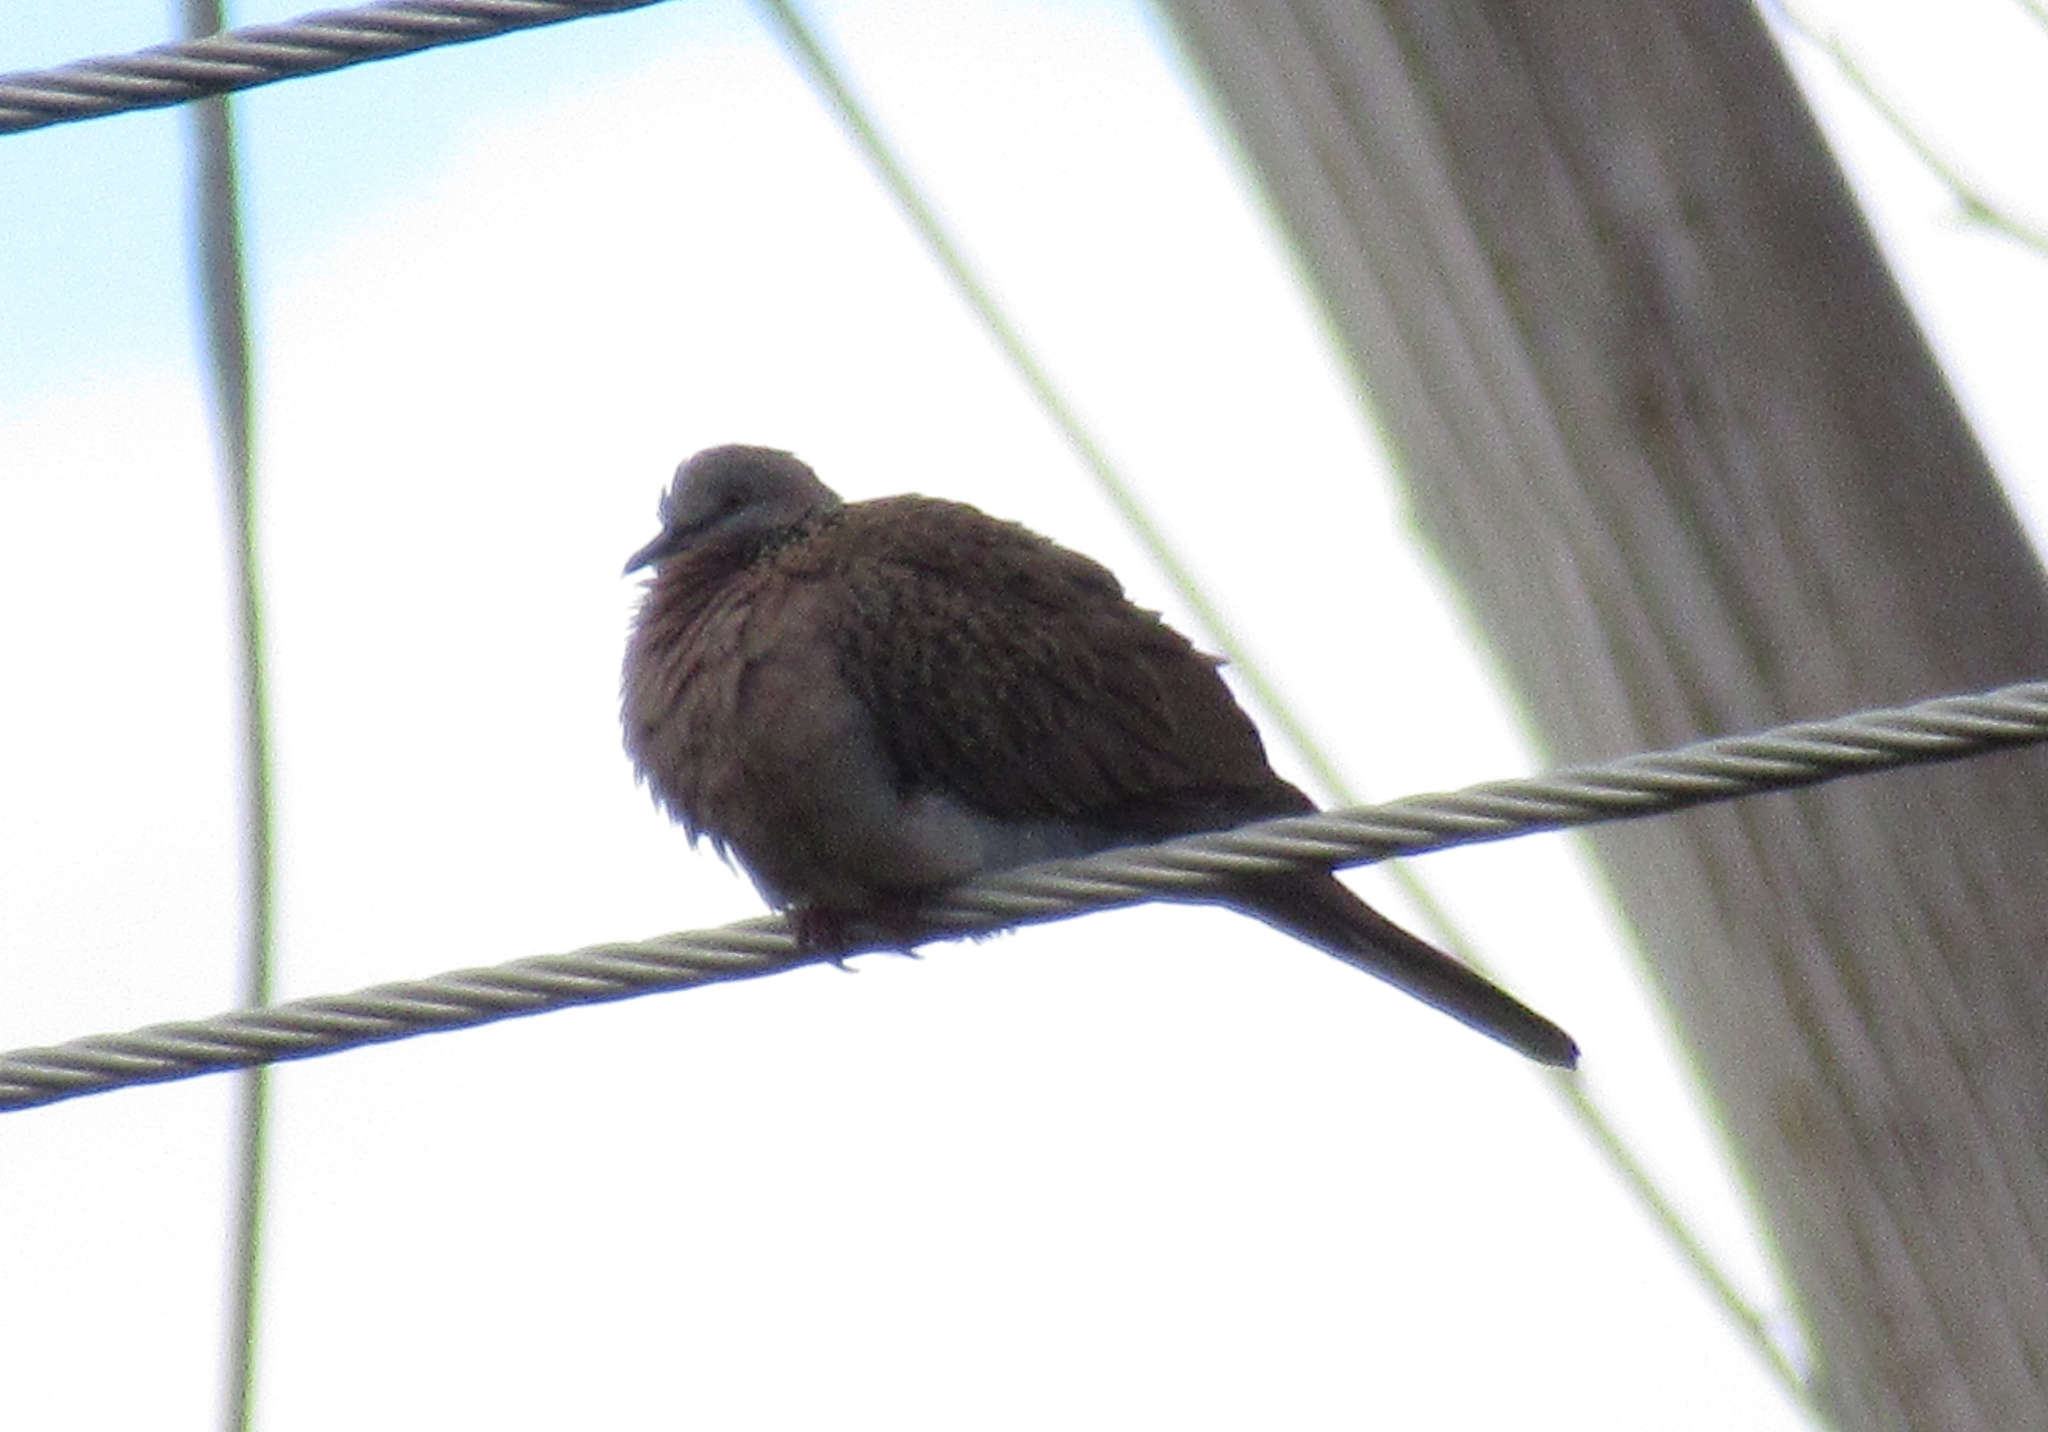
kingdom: Animalia
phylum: Chordata
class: Aves
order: Columbiformes
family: Columbidae
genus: Spilopelia
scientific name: Spilopelia chinensis
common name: Spotted dove
